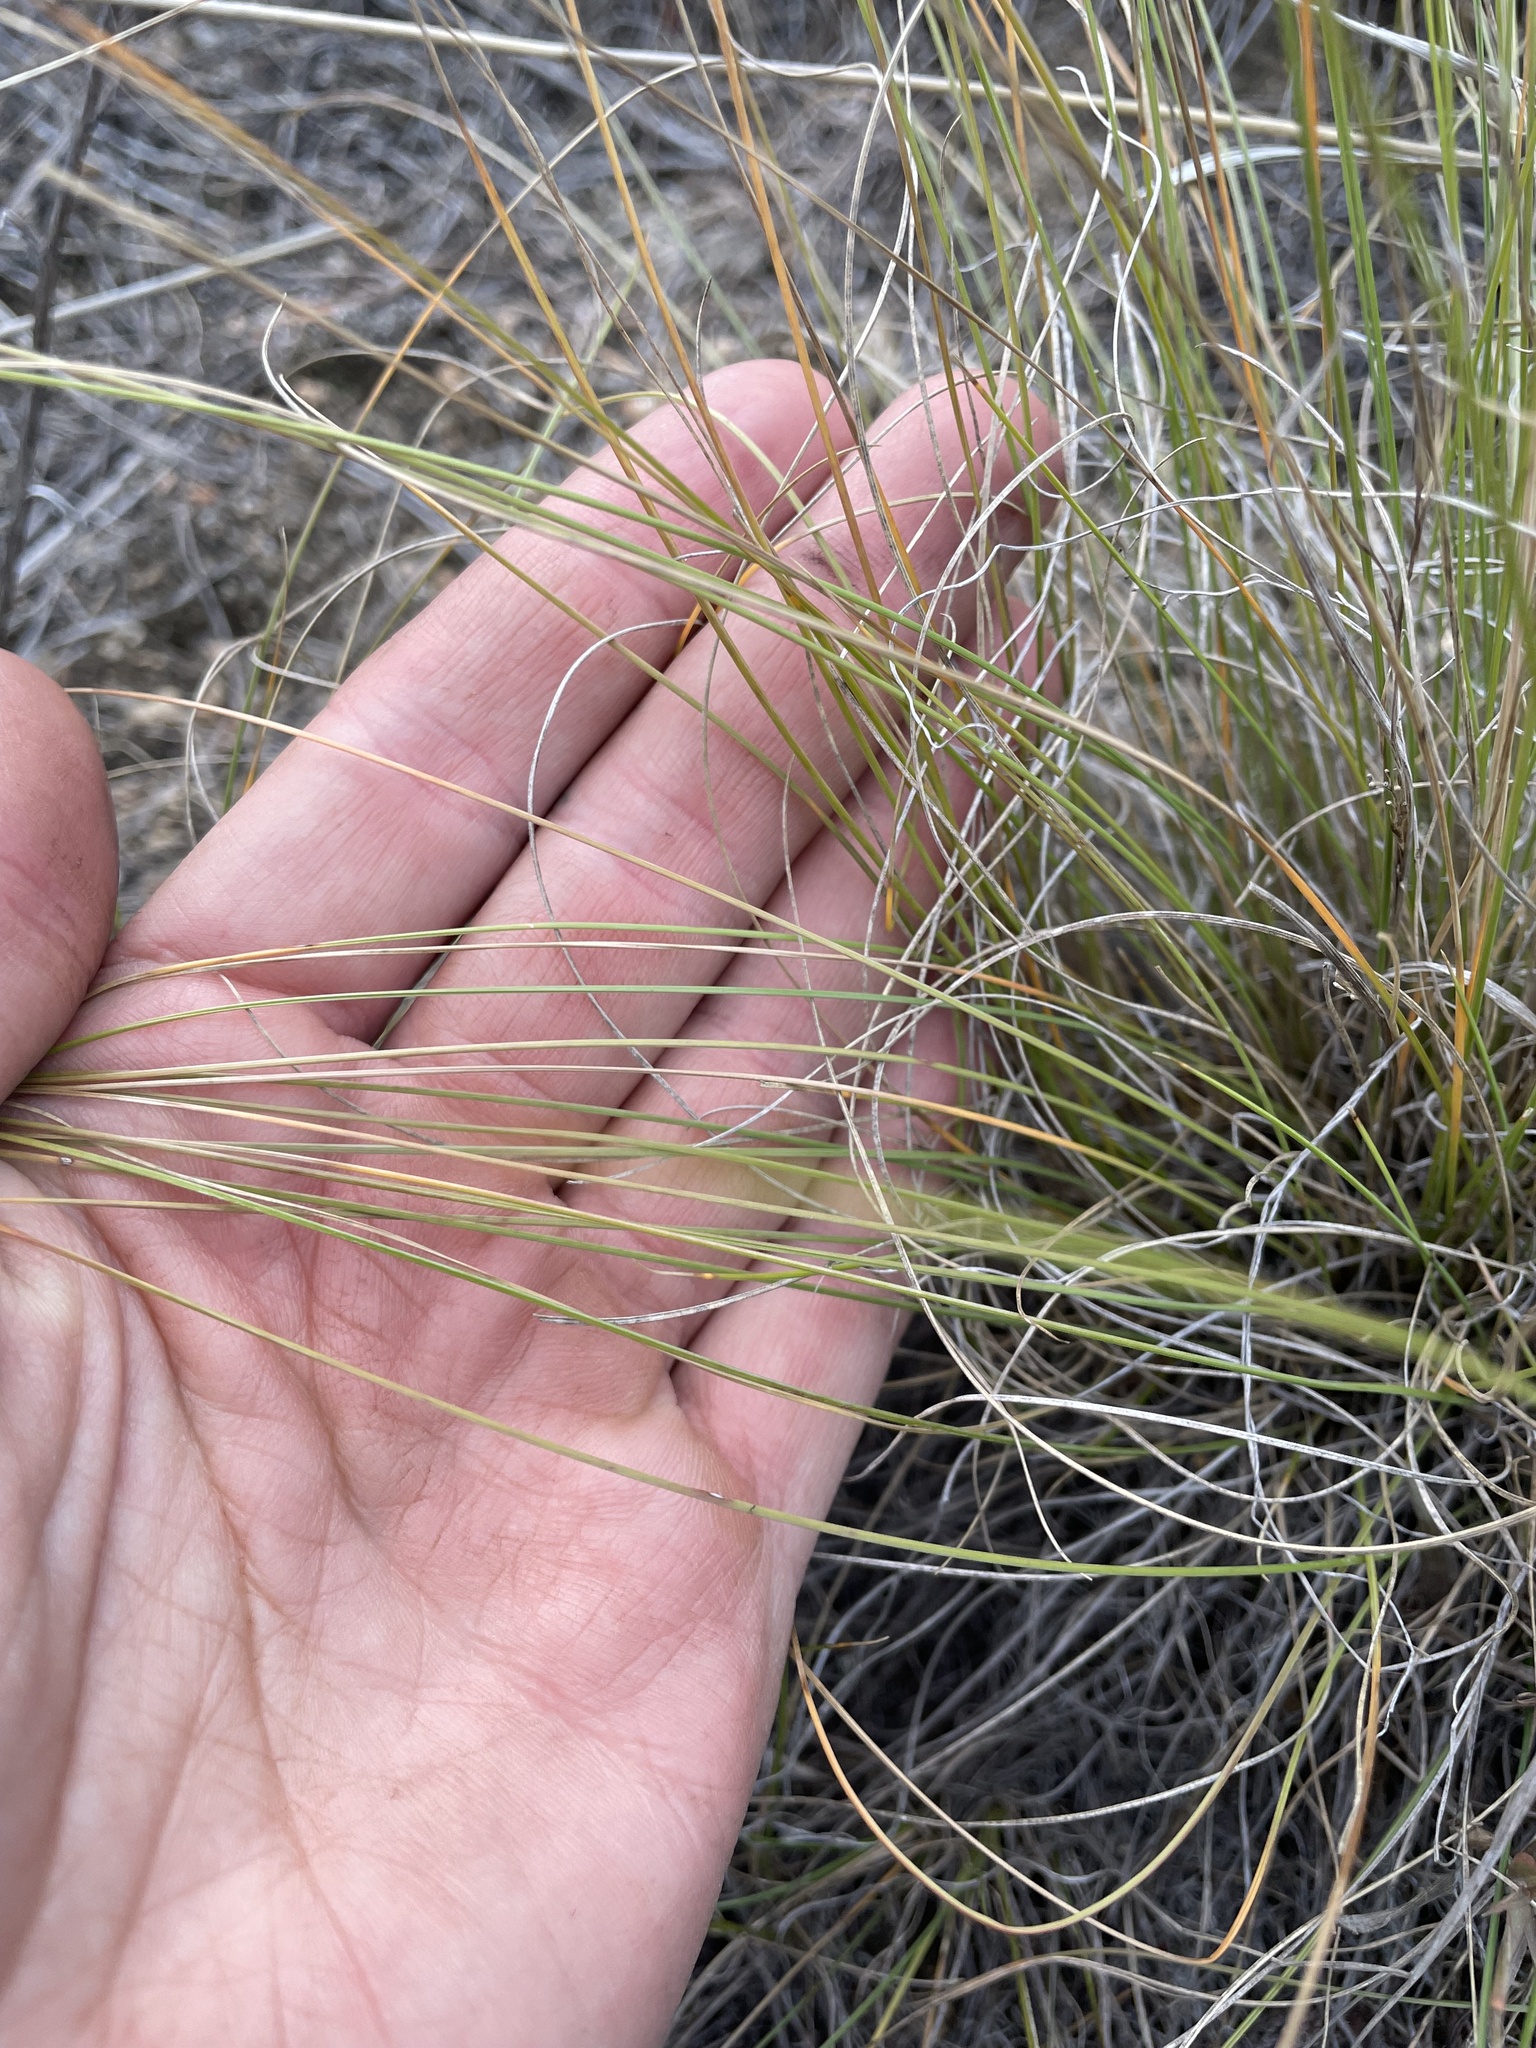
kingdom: Plantae
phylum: Tracheophyta
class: Liliopsida
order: Poales
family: Poaceae
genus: Festuca
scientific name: Festuca idahoensis
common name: Idaho fescue
